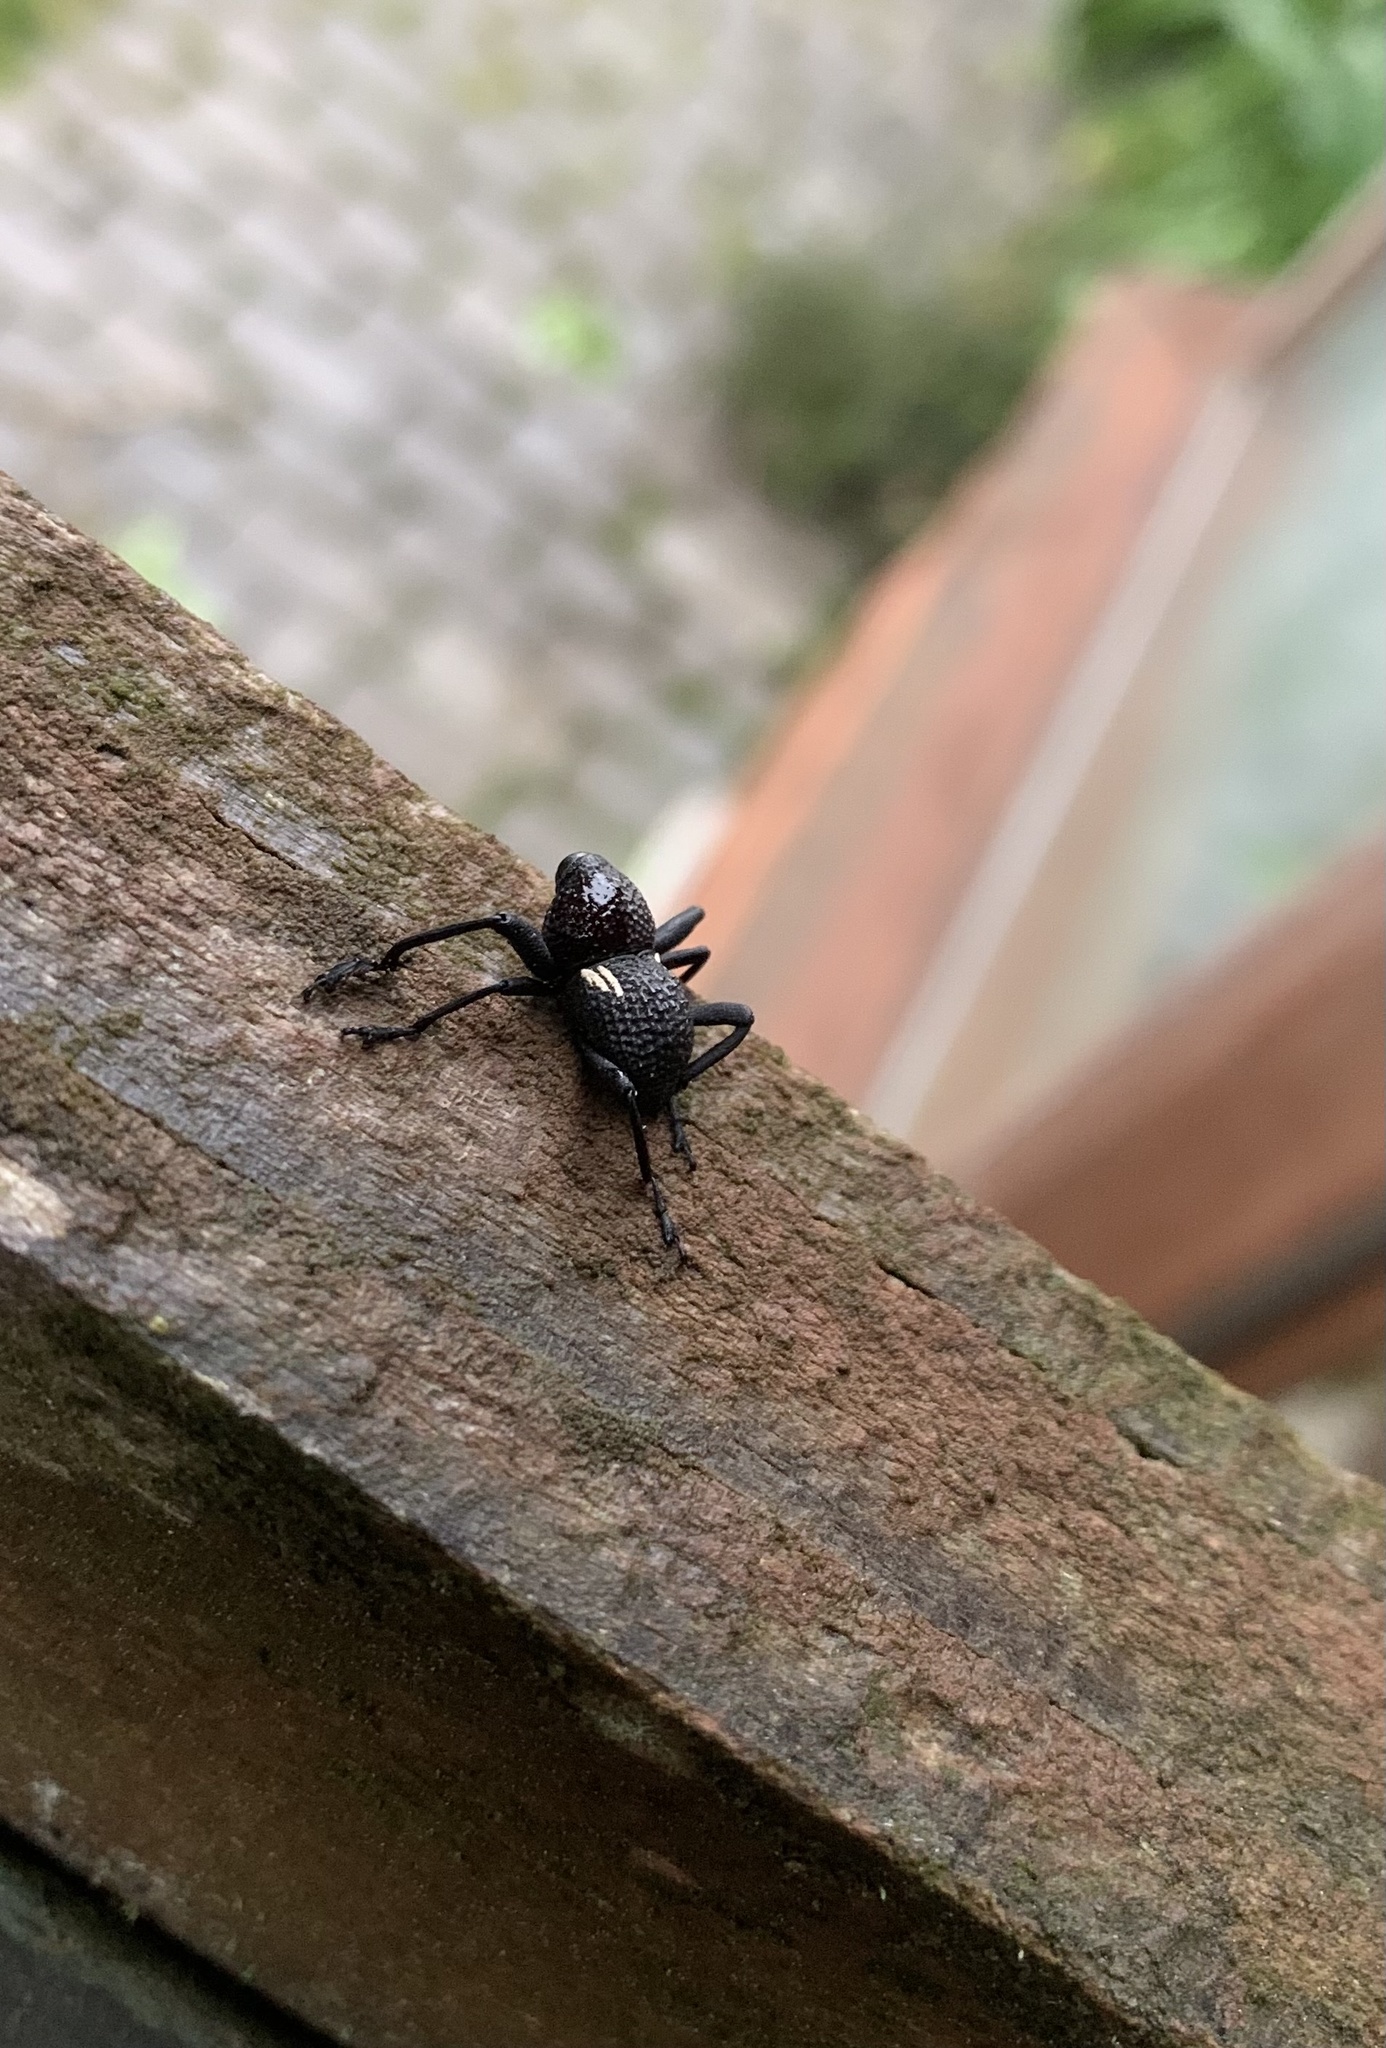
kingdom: Animalia
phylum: Arthropoda
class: Insecta
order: Coleoptera
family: Curculionidae
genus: Rhyephenes
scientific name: Rhyephenes humeralis
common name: Araè±ita chilena del pino
